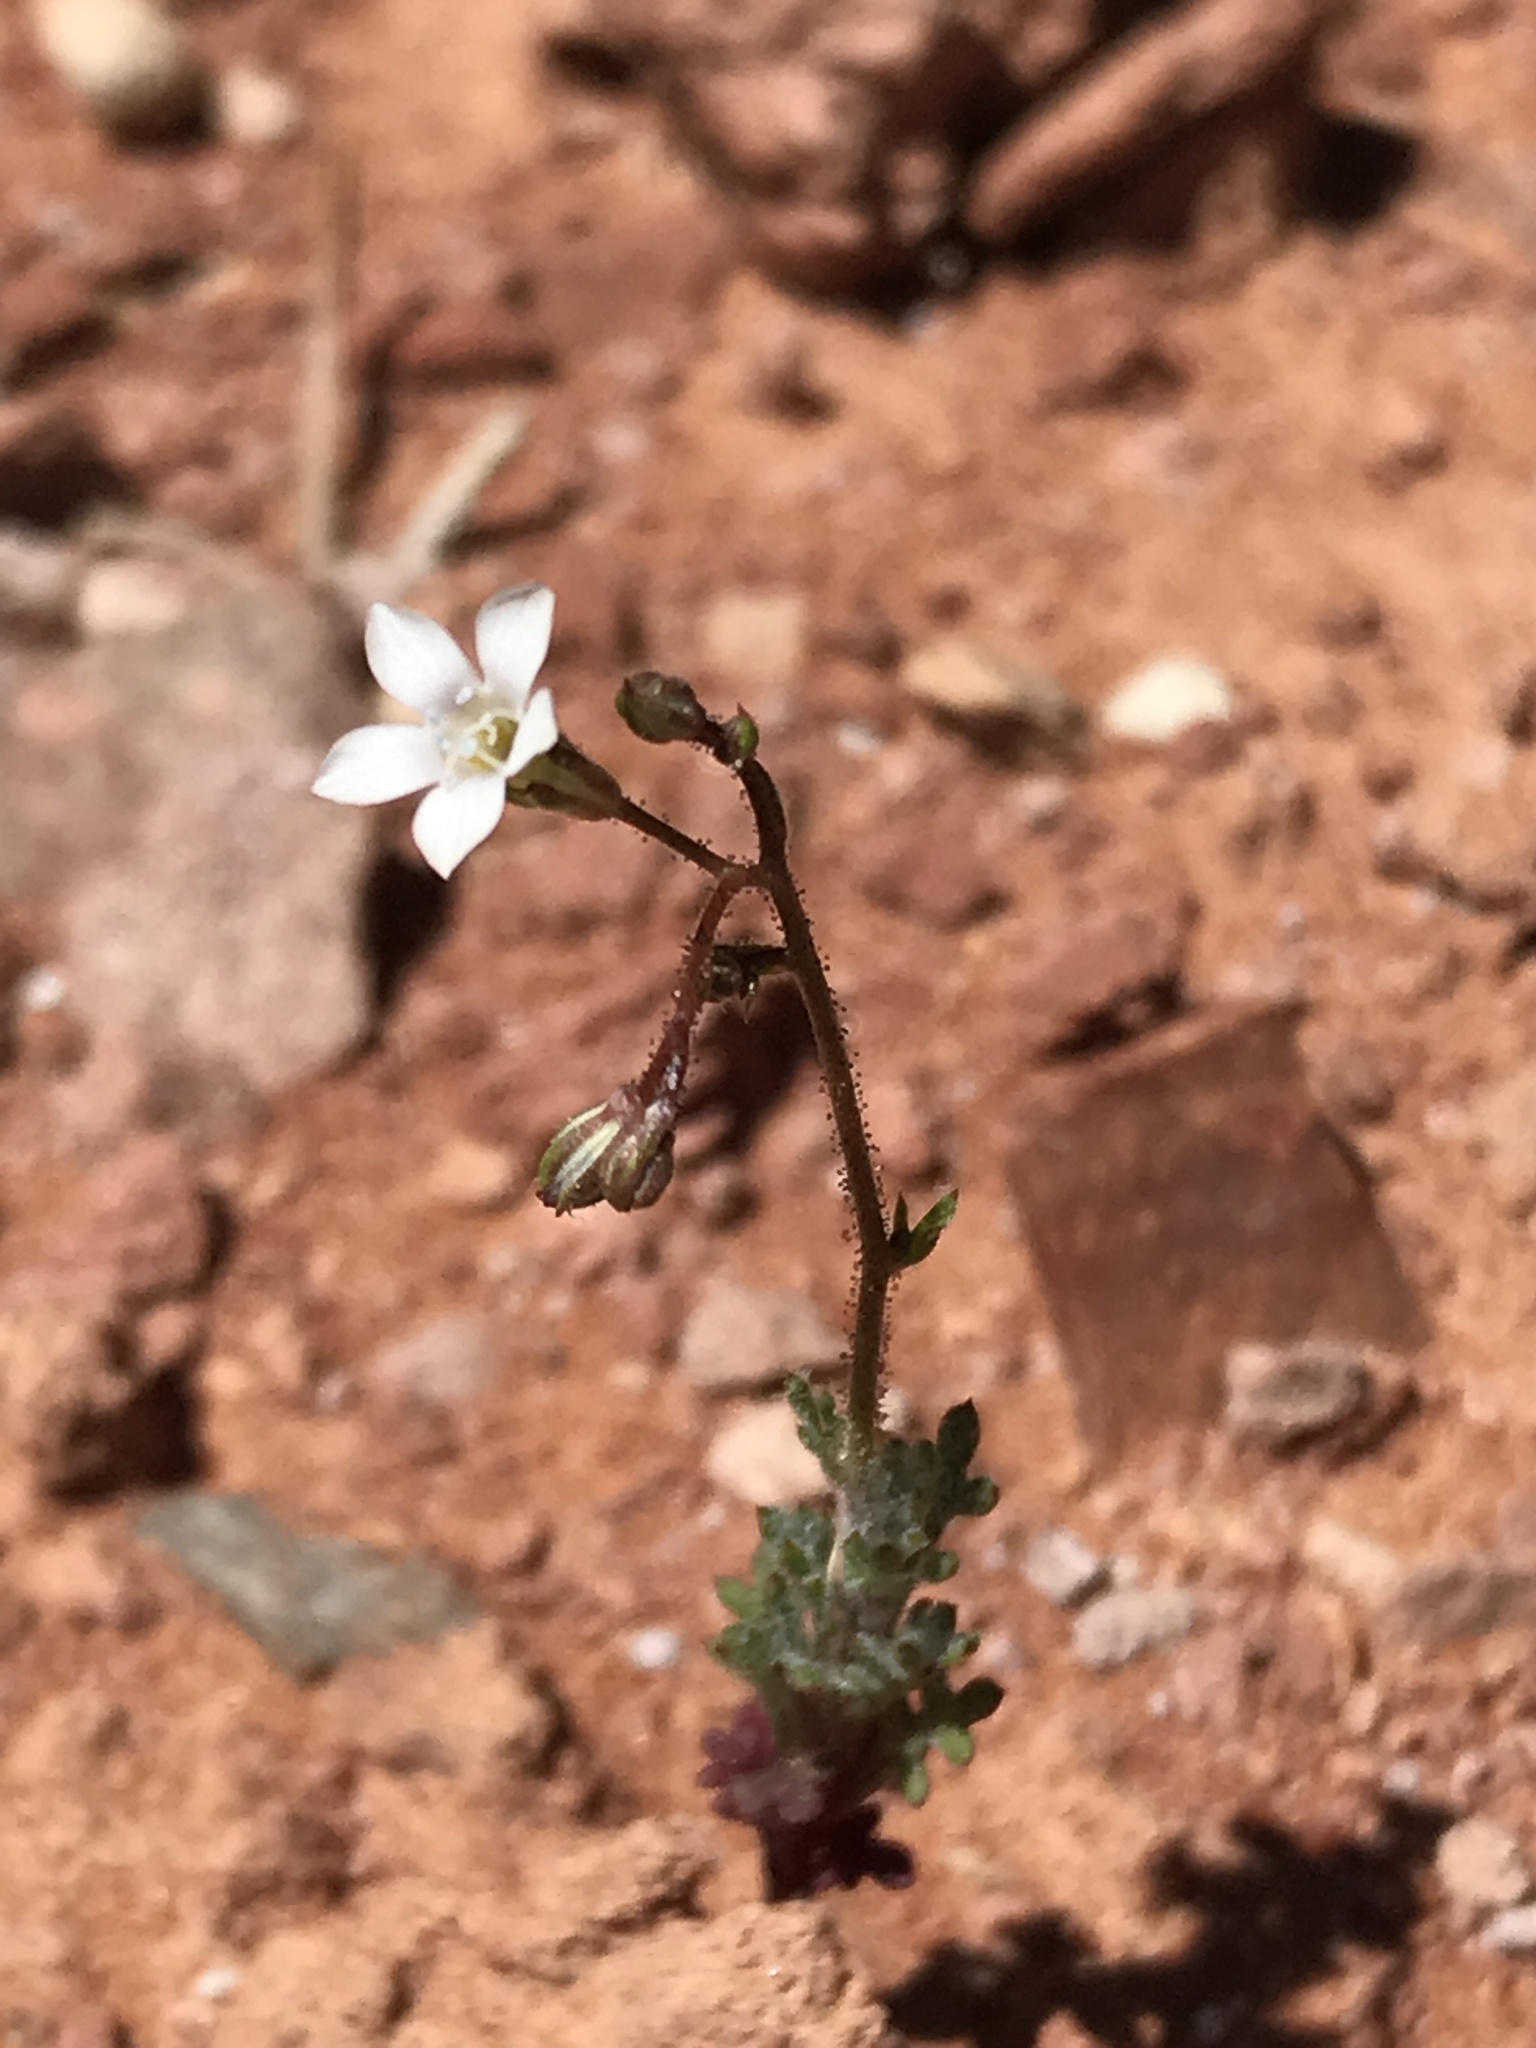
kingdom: Plantae
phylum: Tracheophyta
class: Magnoliopsida
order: Ericales
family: Polemoniaceae
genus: Gilia
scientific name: Gilia clokeyi
